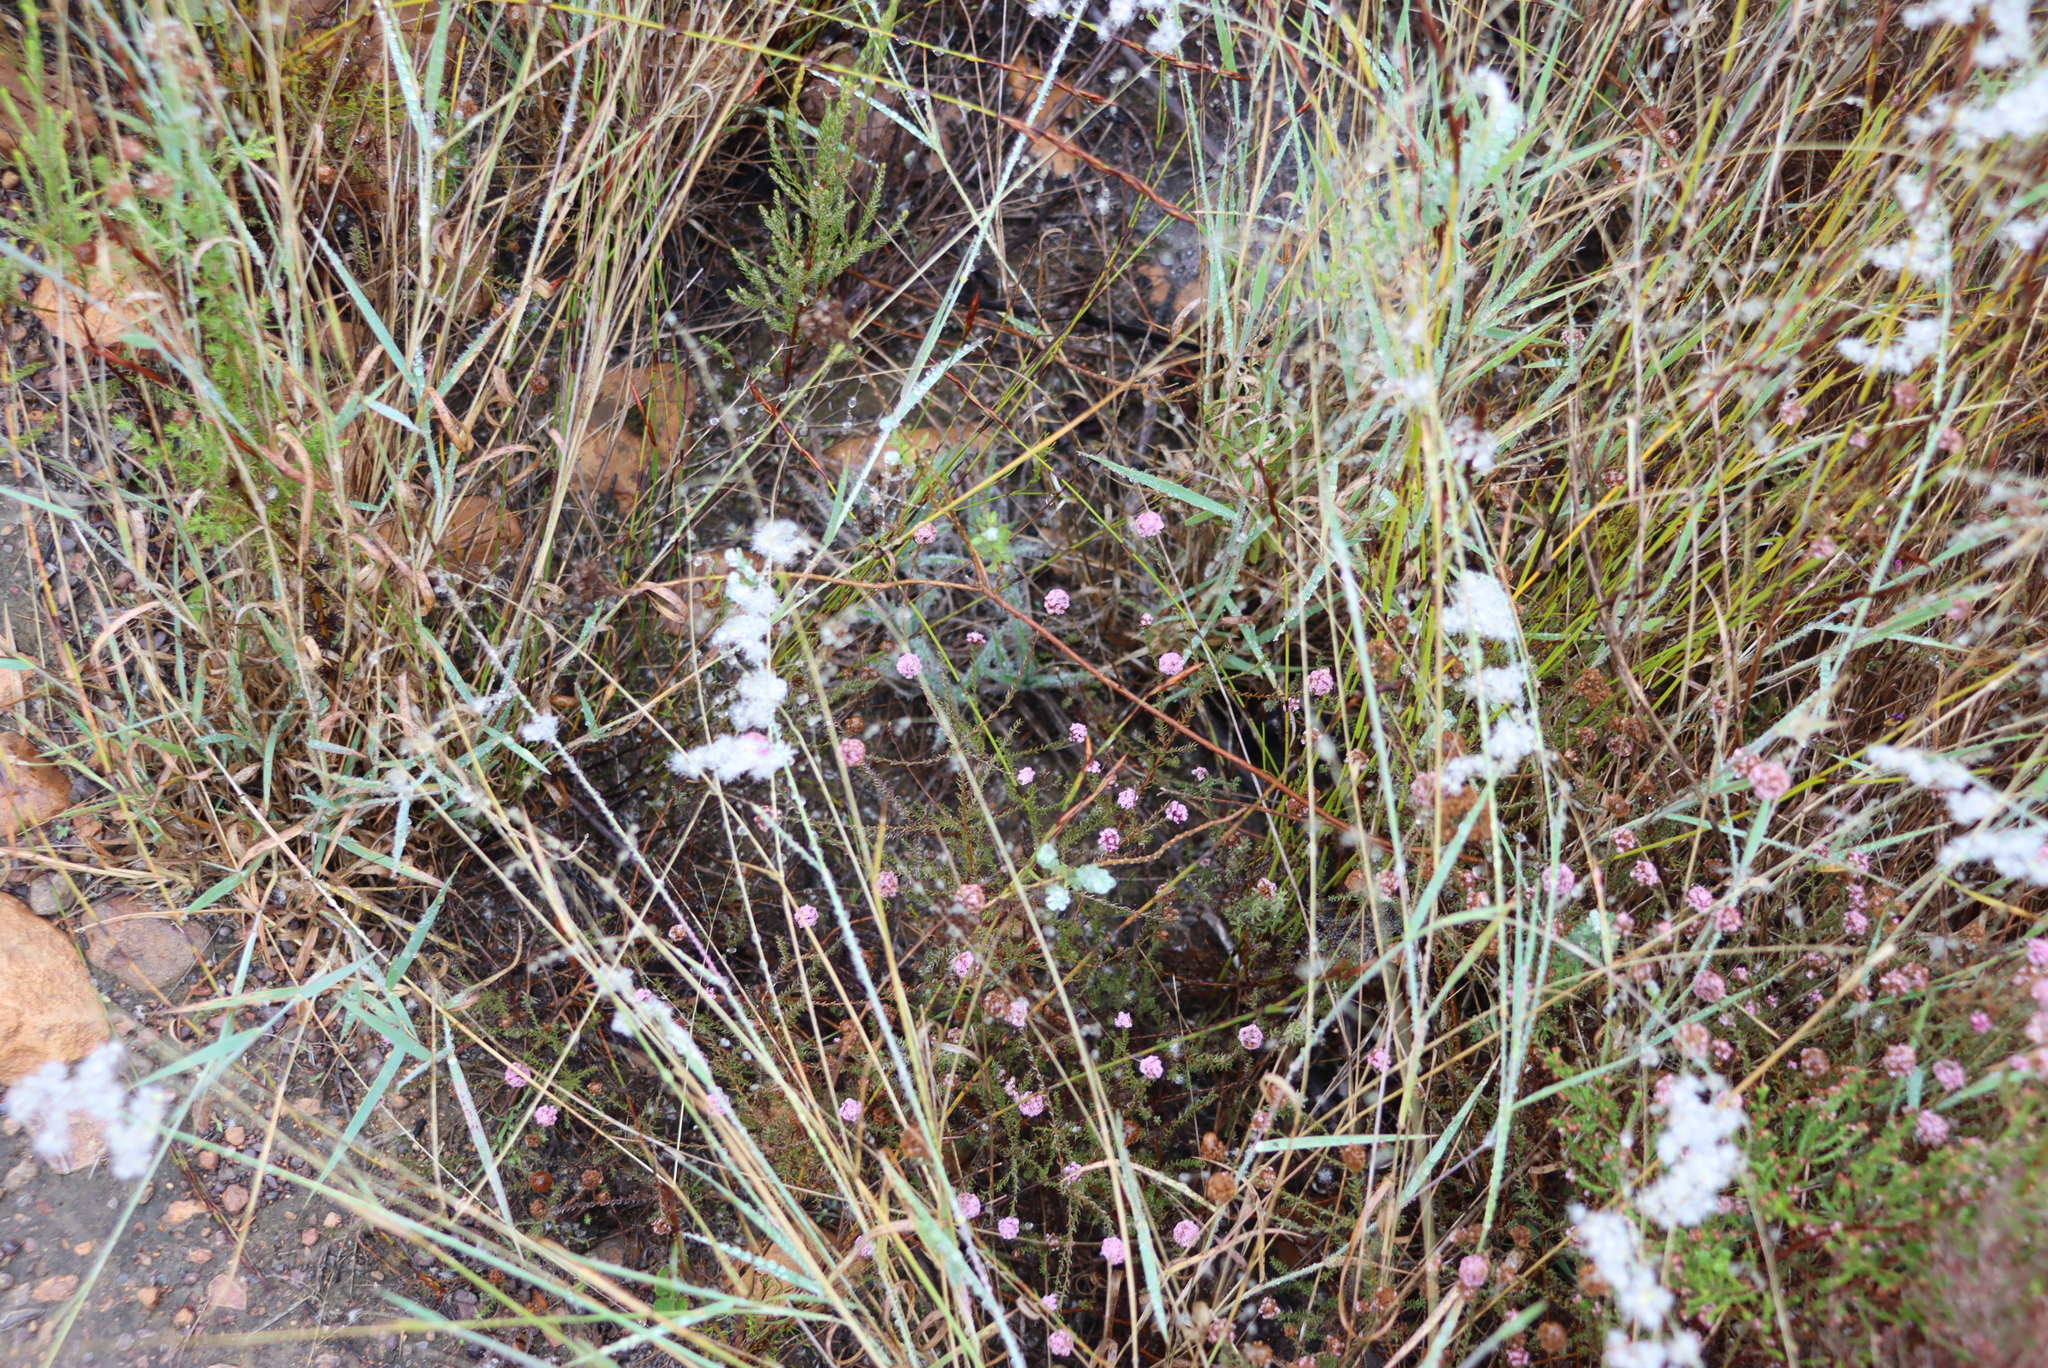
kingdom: Plantae
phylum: Tracheophyta
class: Liliopsida
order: Poales
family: Poaceae
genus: Melinis
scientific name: Melinis repens
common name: Rose natal grass
